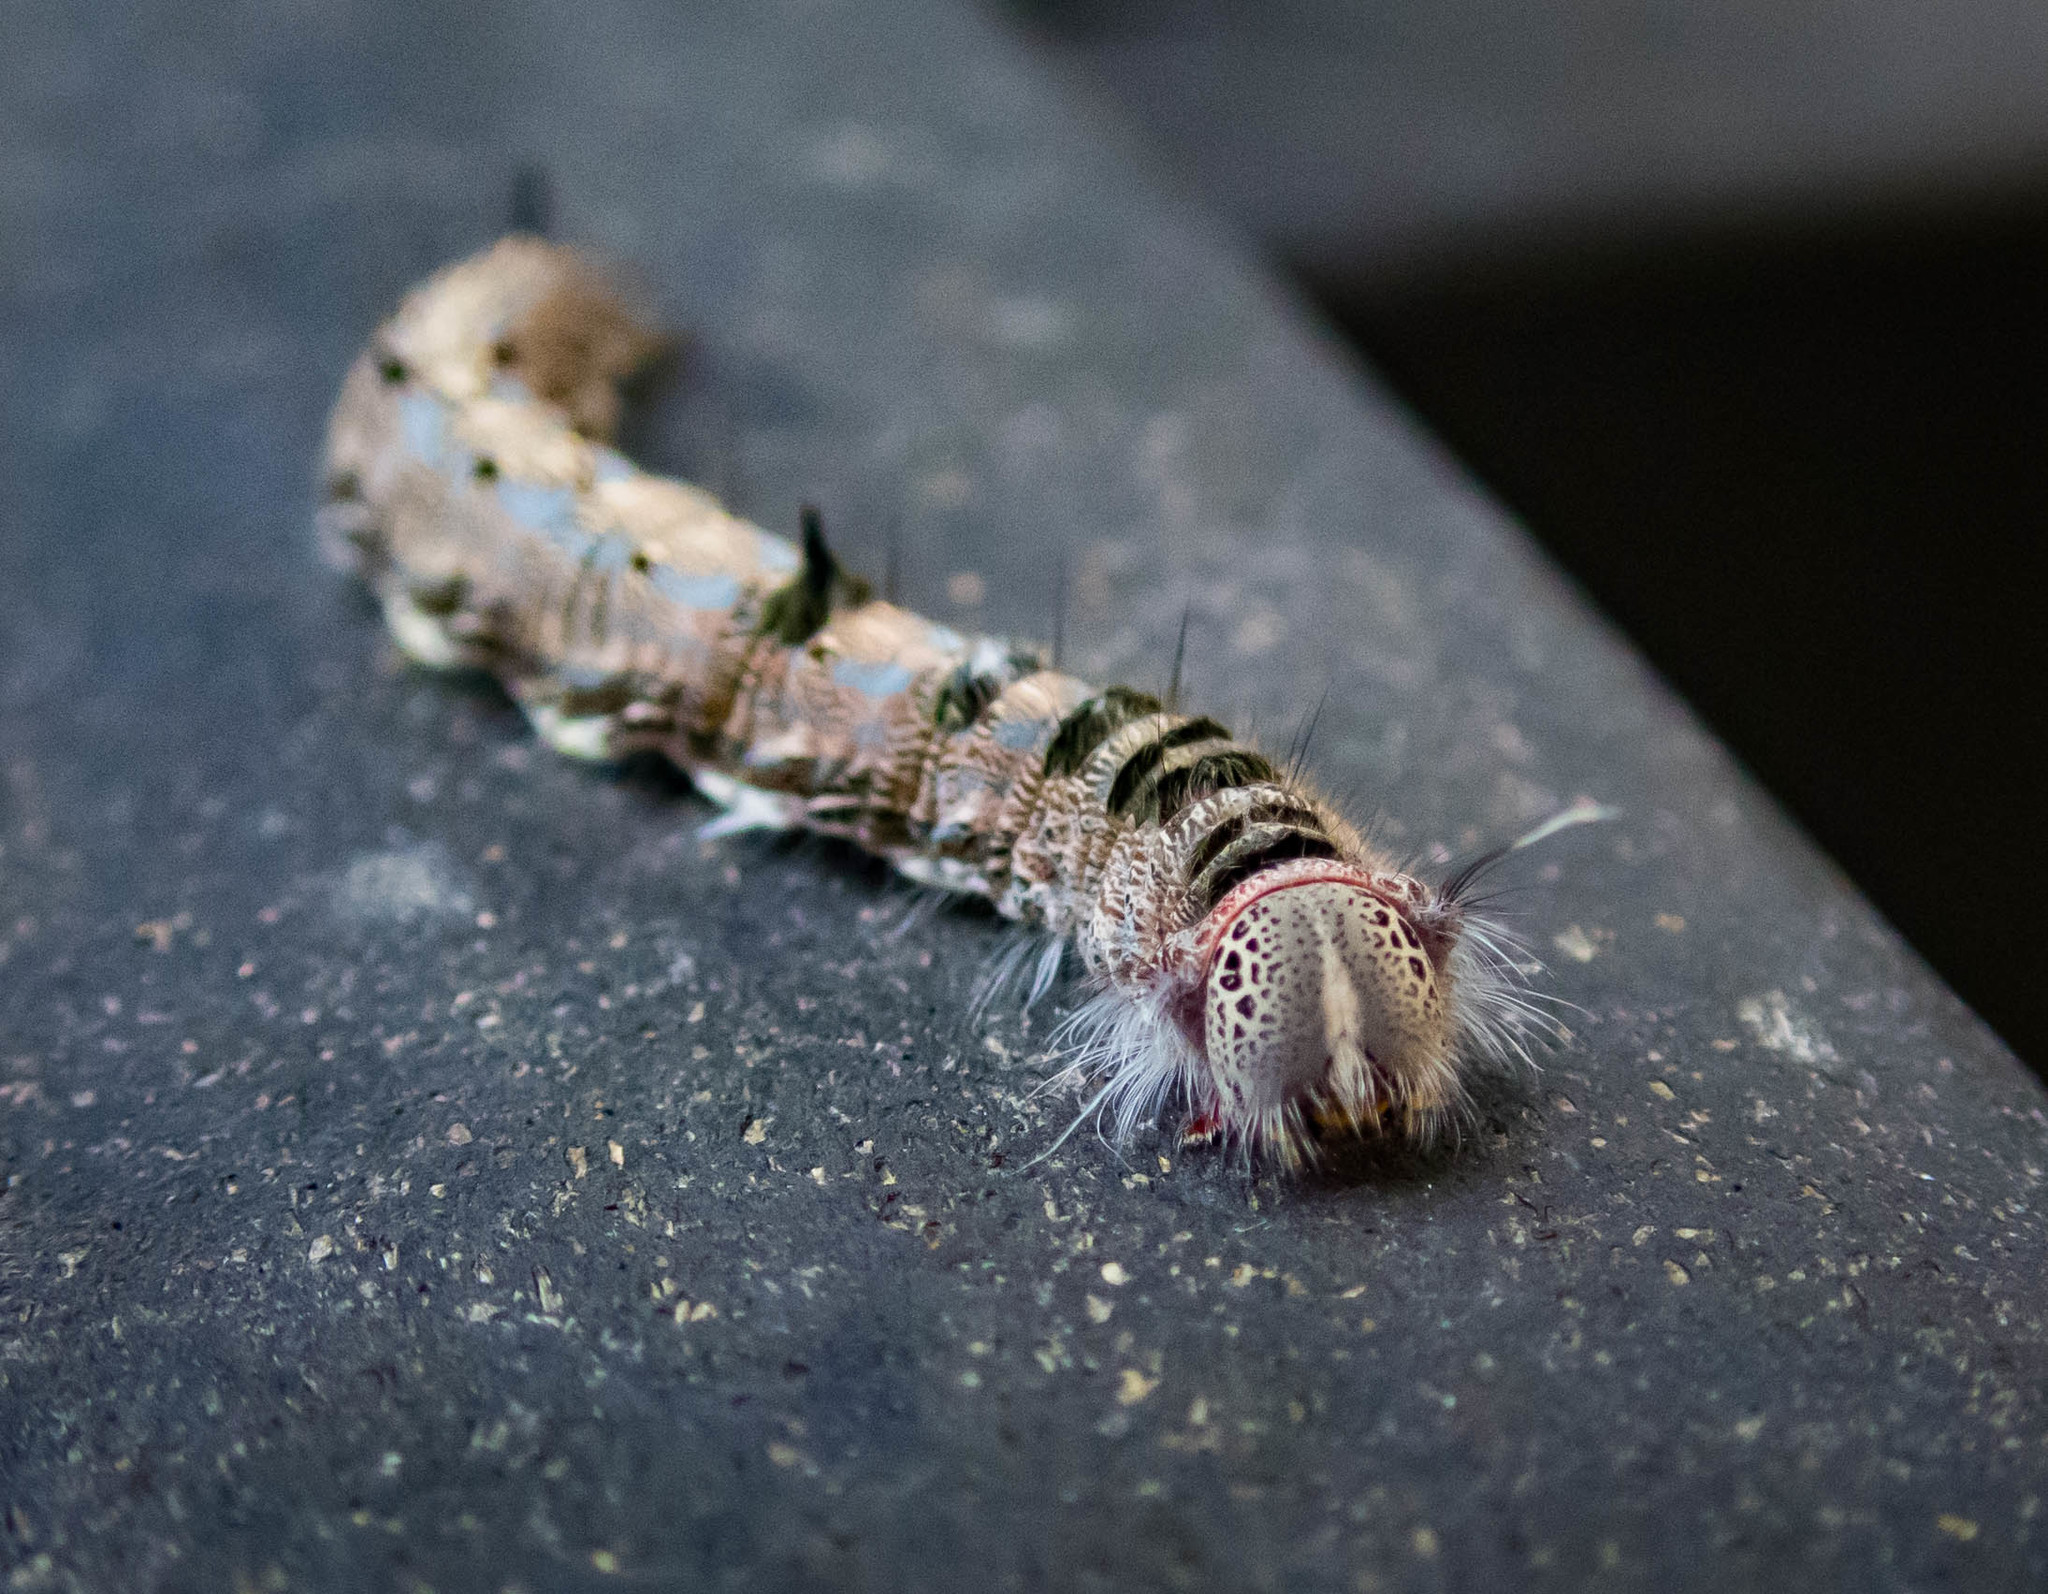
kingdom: Animalia
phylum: Arthropoda
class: Insecta
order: Lepidoptera
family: Lasiocampidae
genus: Pernattia
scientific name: Pernattia pusilla
